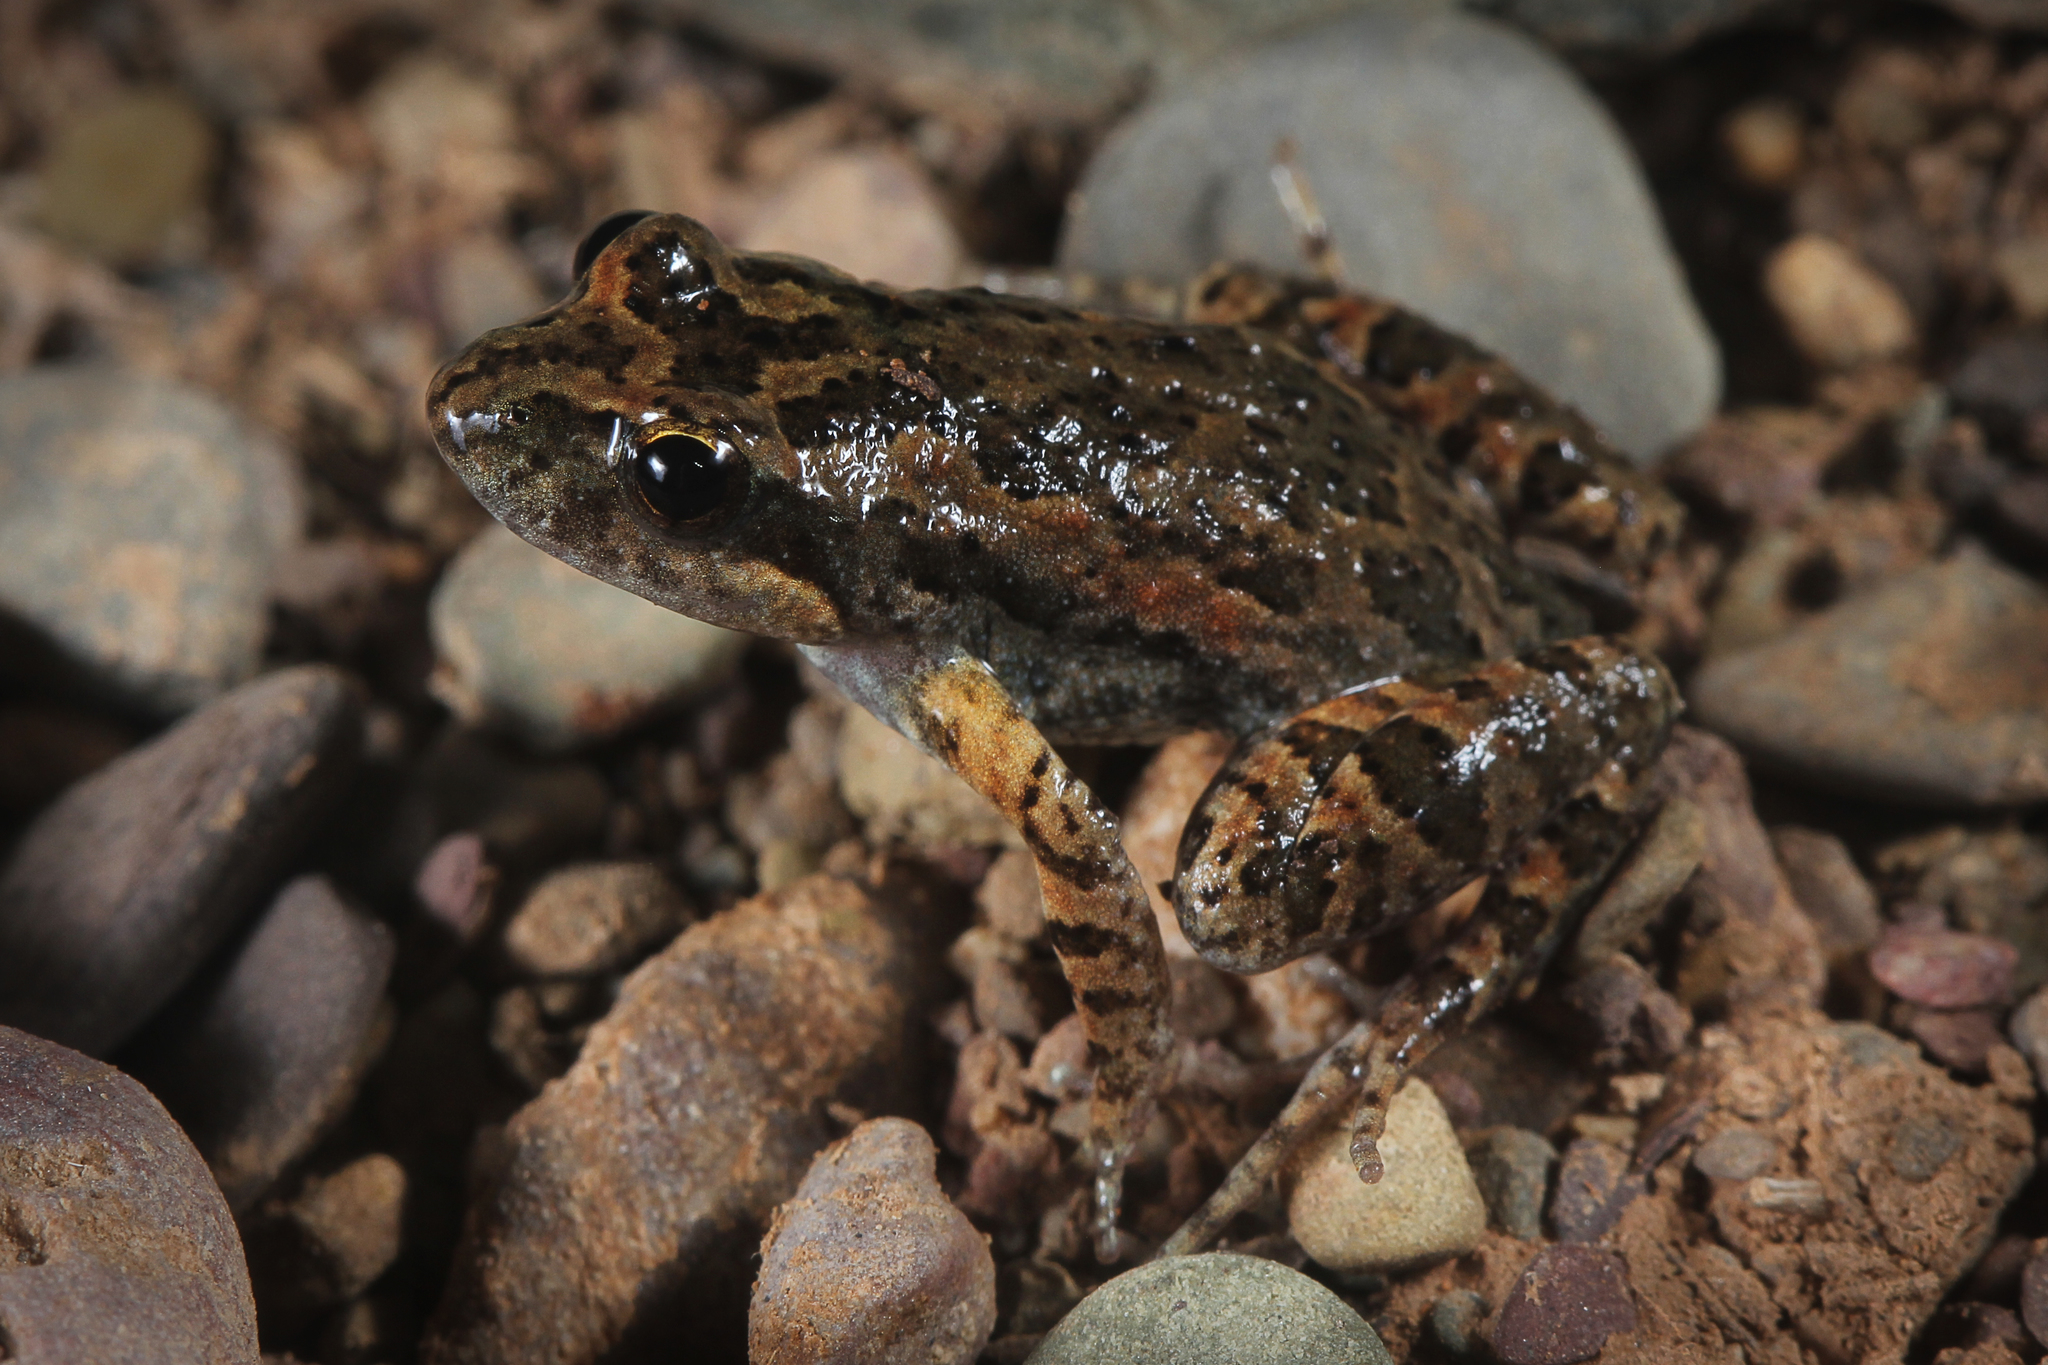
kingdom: Animalia
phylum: Chordata
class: Amphibia
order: Anura
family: Myobatrachidae
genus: Crinia
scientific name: Crinia flindersensis
